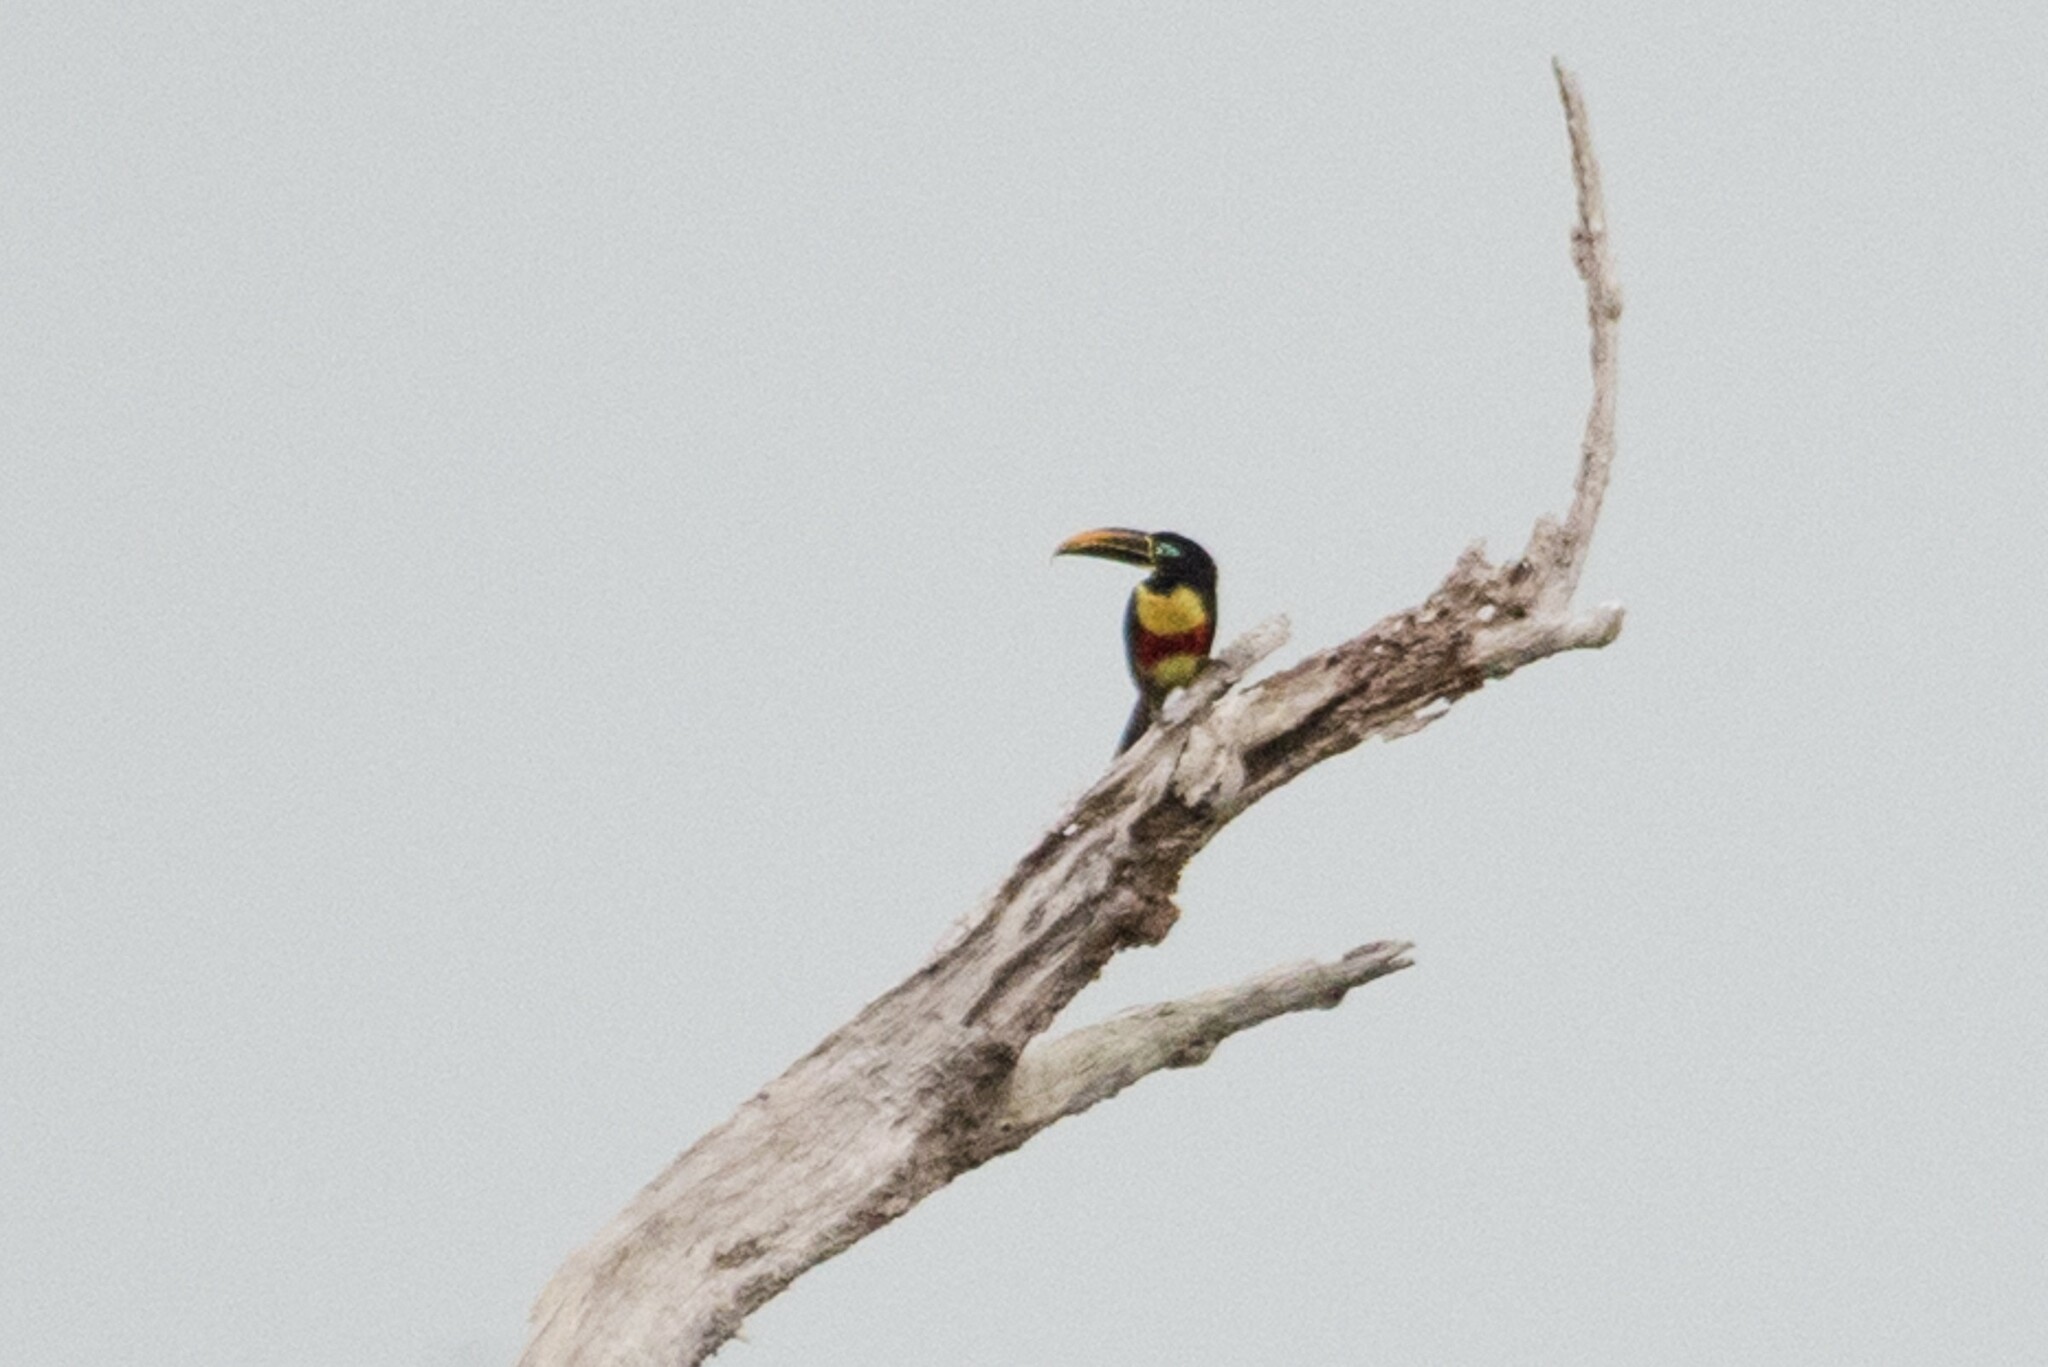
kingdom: Animalia
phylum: Chordata
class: Aves
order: Piciformes
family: Ramphastidae
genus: Pteroglossus
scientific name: Pteroglossus castanotis
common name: Chestnut-eared aracari
